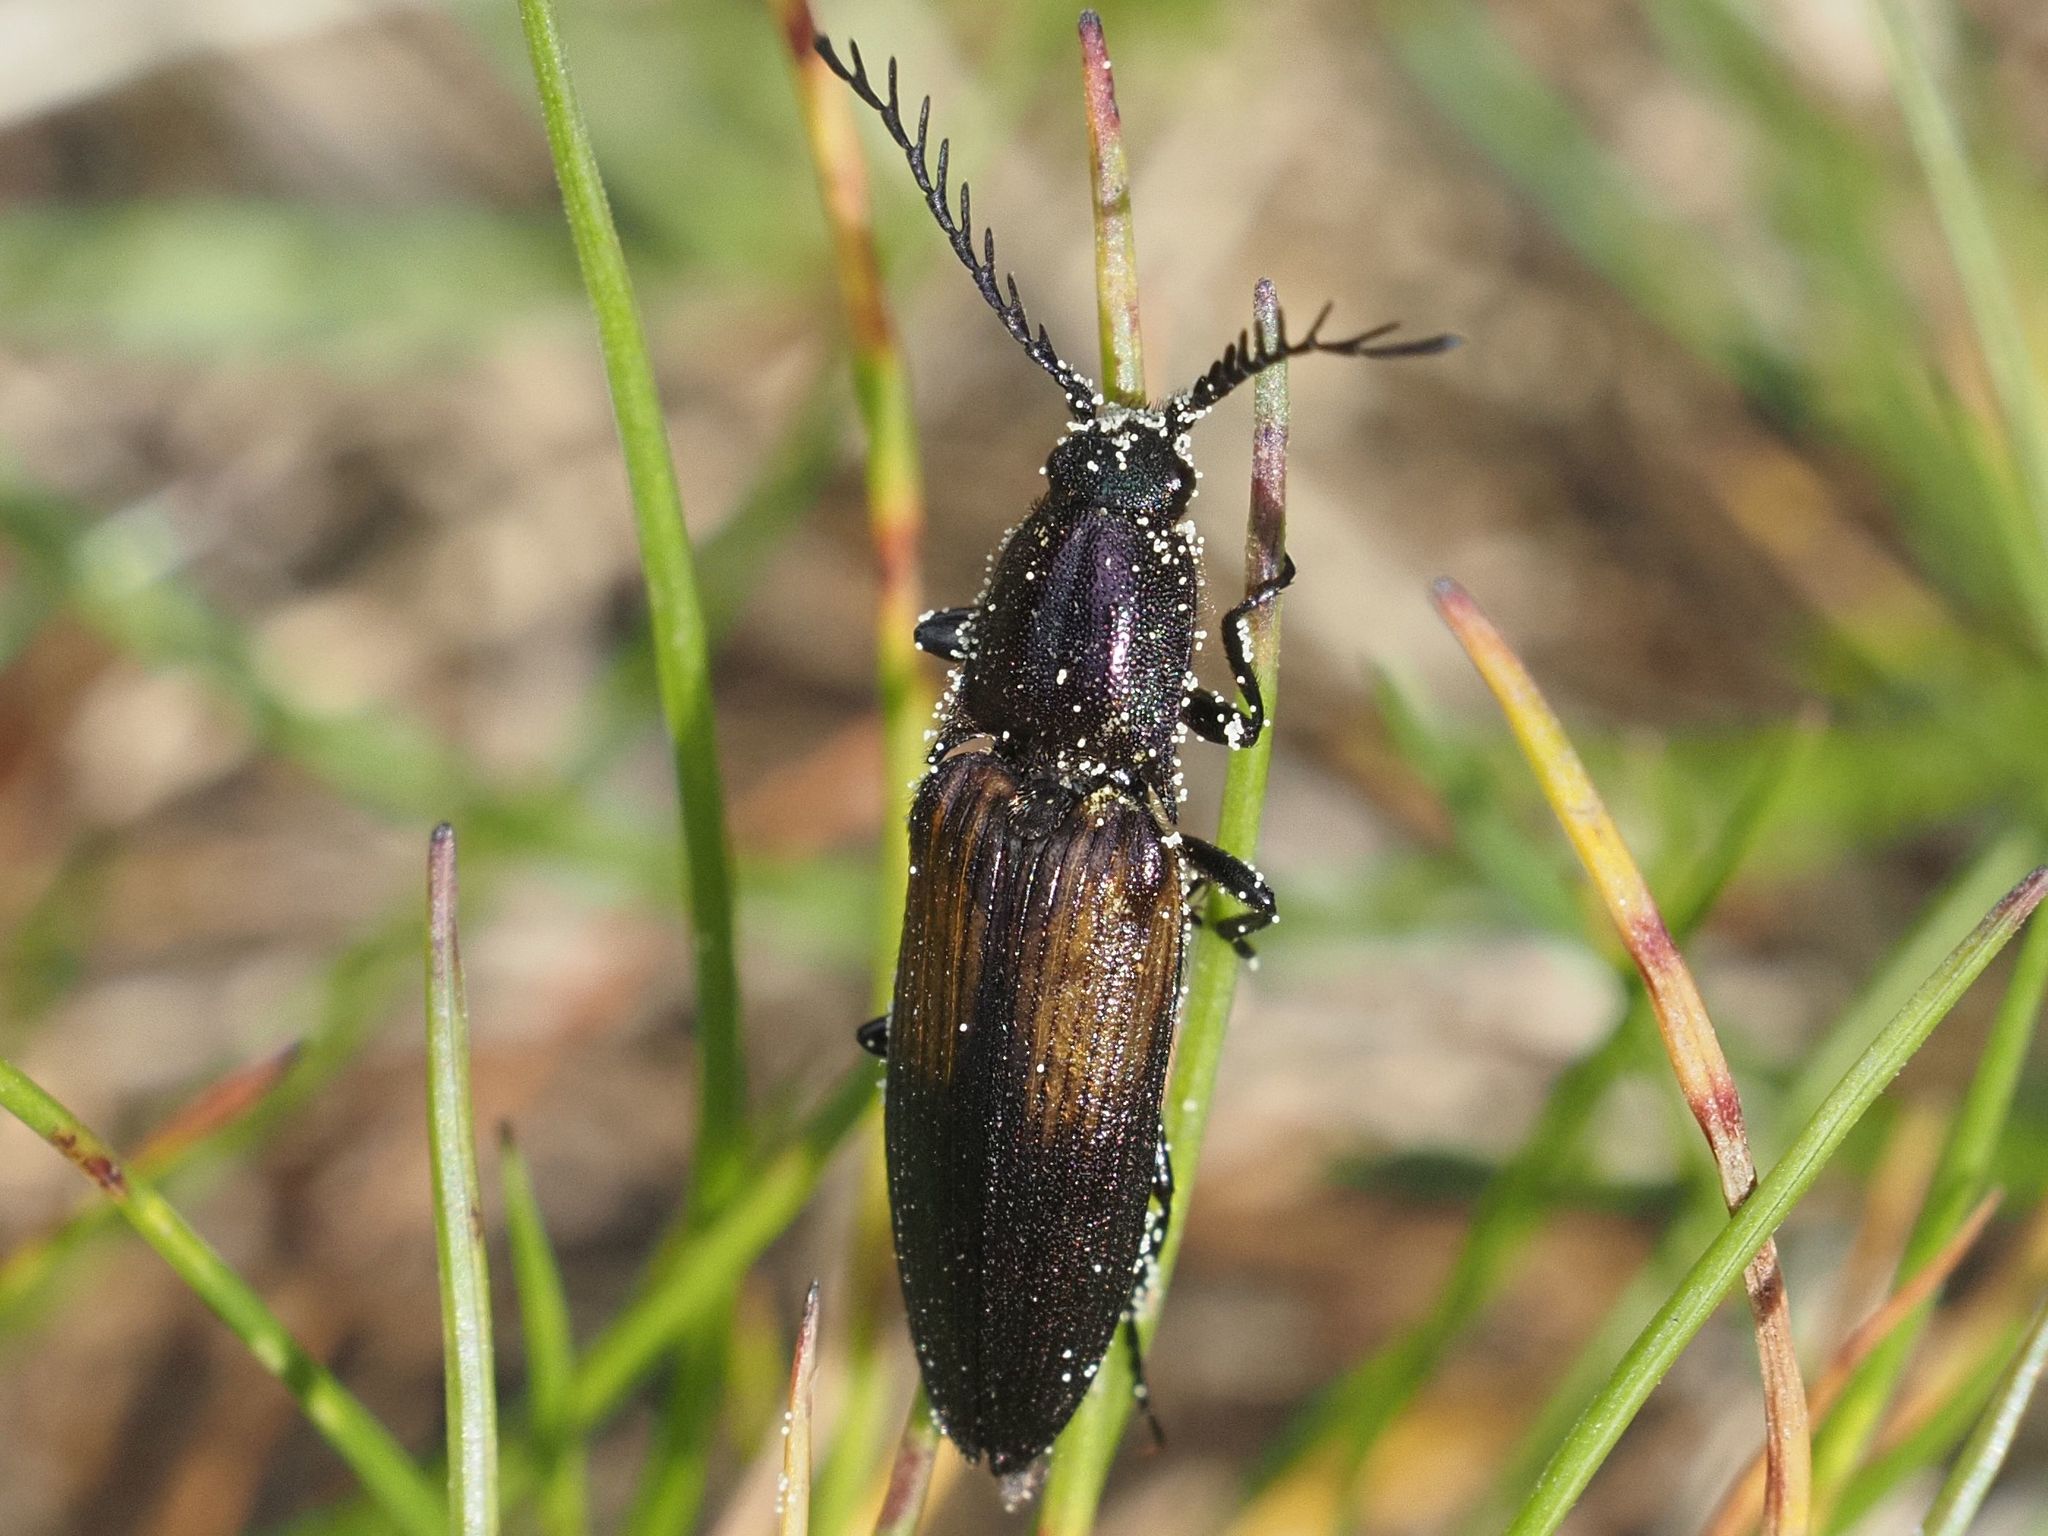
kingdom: Animalia
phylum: Arthropoda
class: Insecta
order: Coleoptera
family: Elateridae
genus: Ctenicera
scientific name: Ctenicera cuprea
